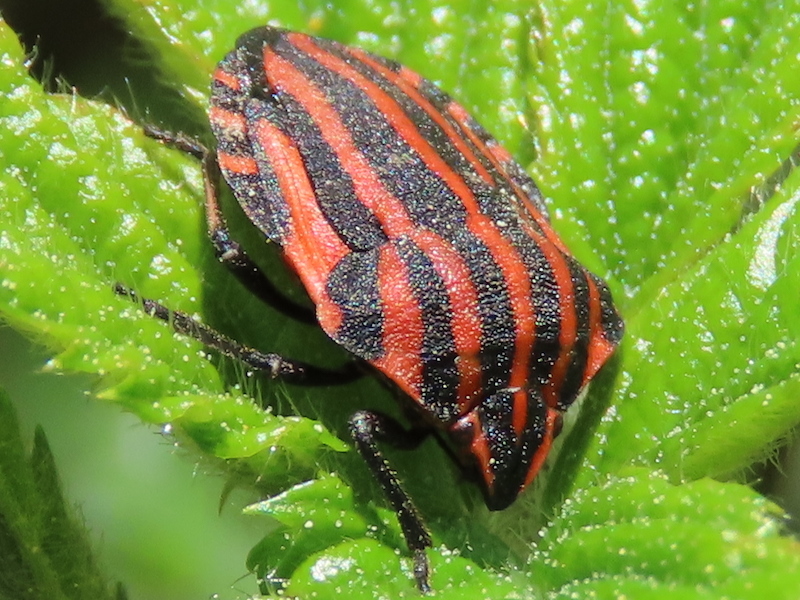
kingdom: Animalia
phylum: Arthropoda
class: Insecta
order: Hemiptera
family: Pentatomidae
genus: Graphosoma
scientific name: Graphosoma italicum
